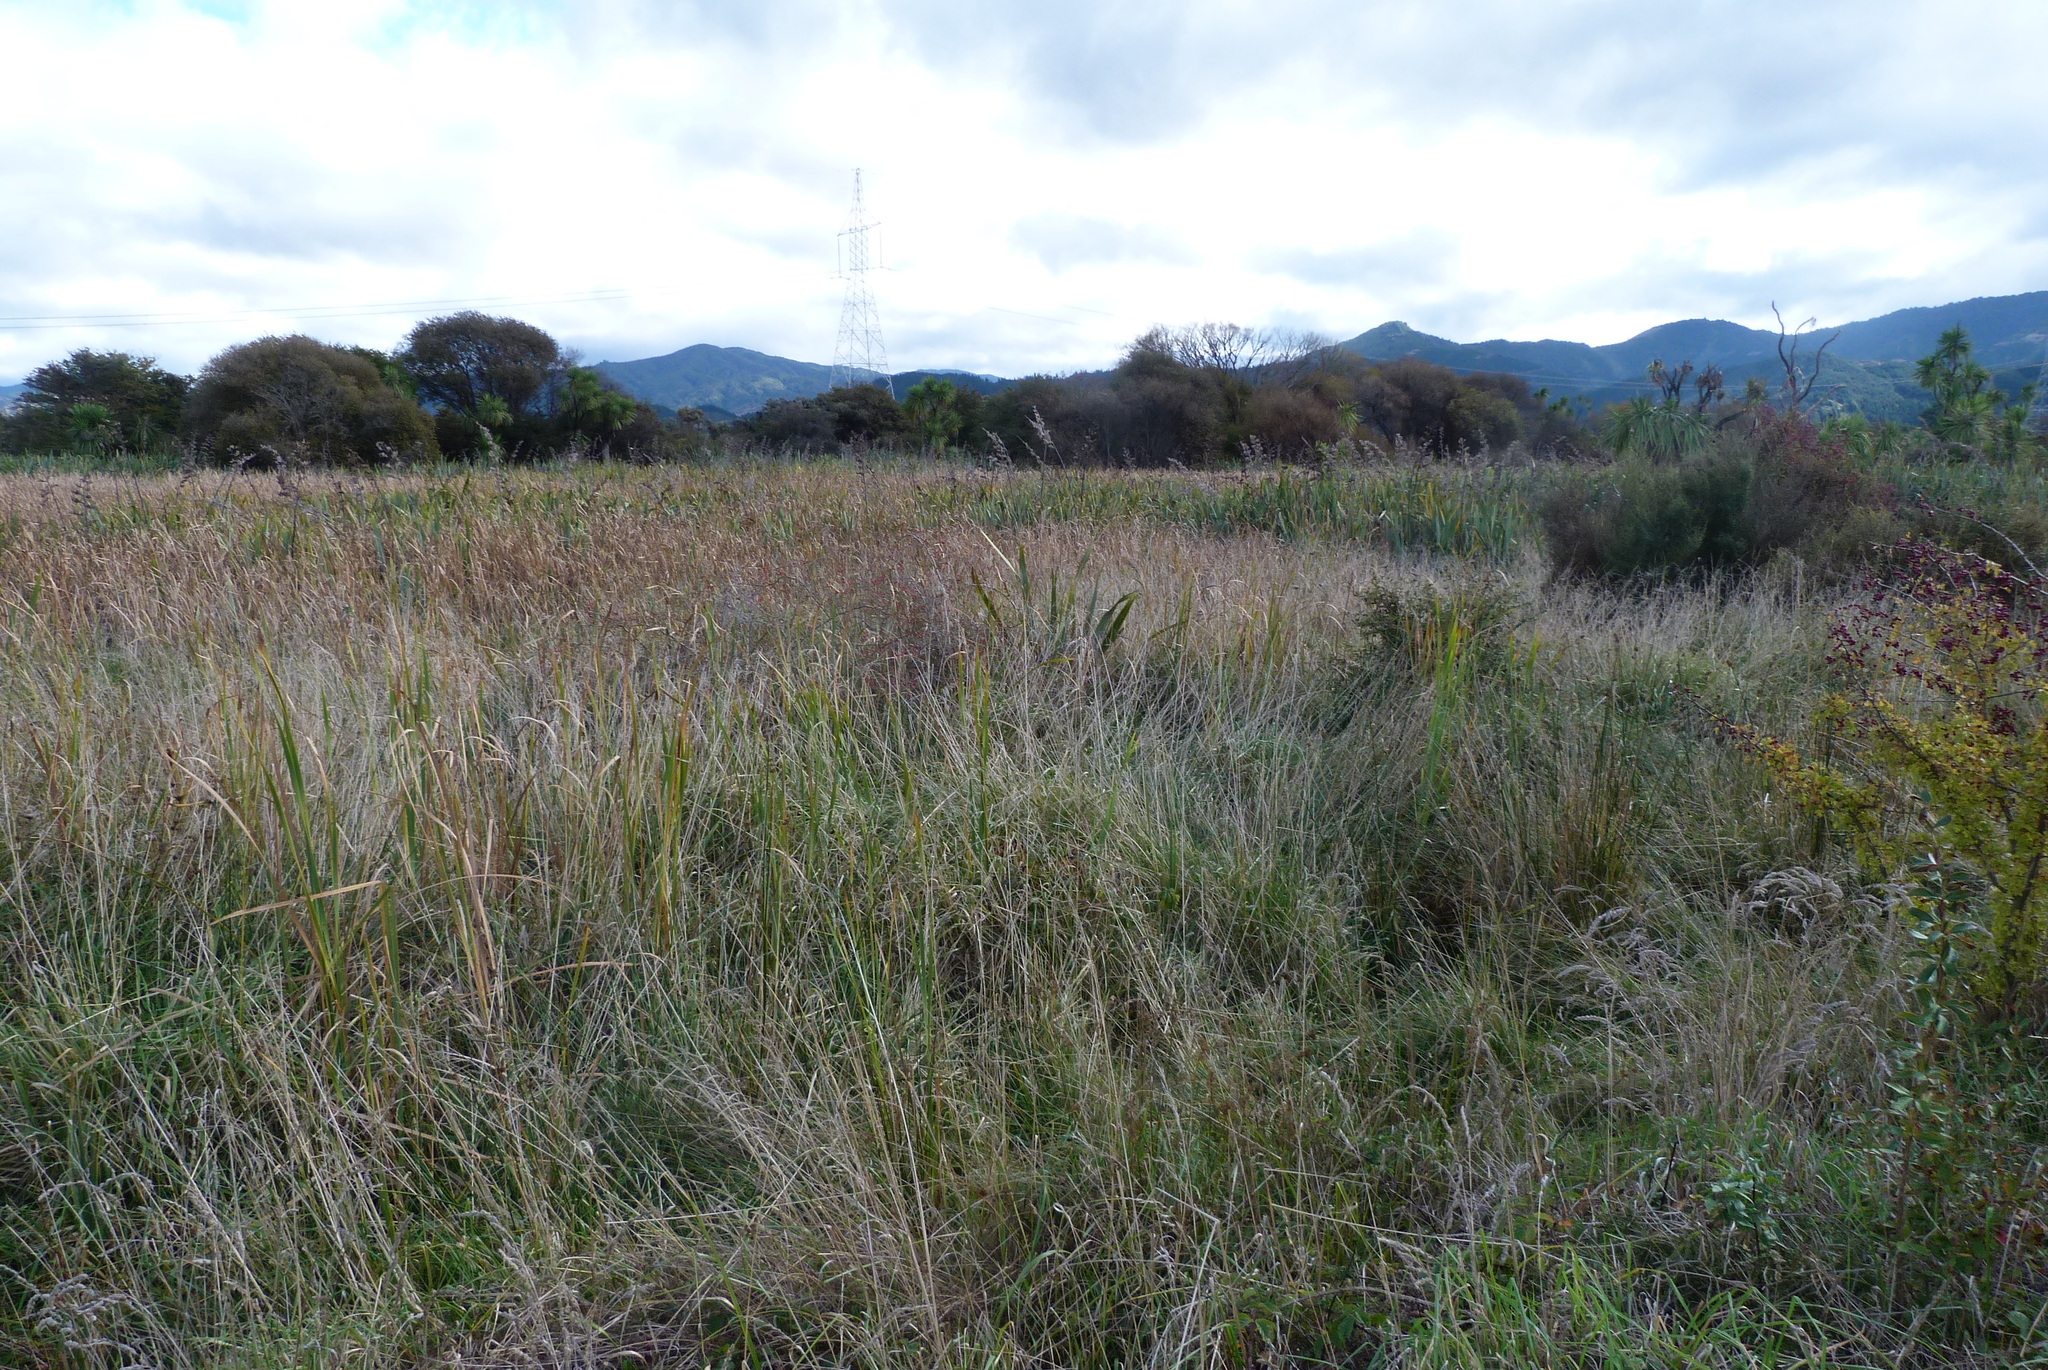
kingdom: Plantae
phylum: Tracheophyta
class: Liliopsida
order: Asparagales
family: Asphodelaceae
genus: Phormium
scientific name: Phormium tenax
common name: New zealand flax
